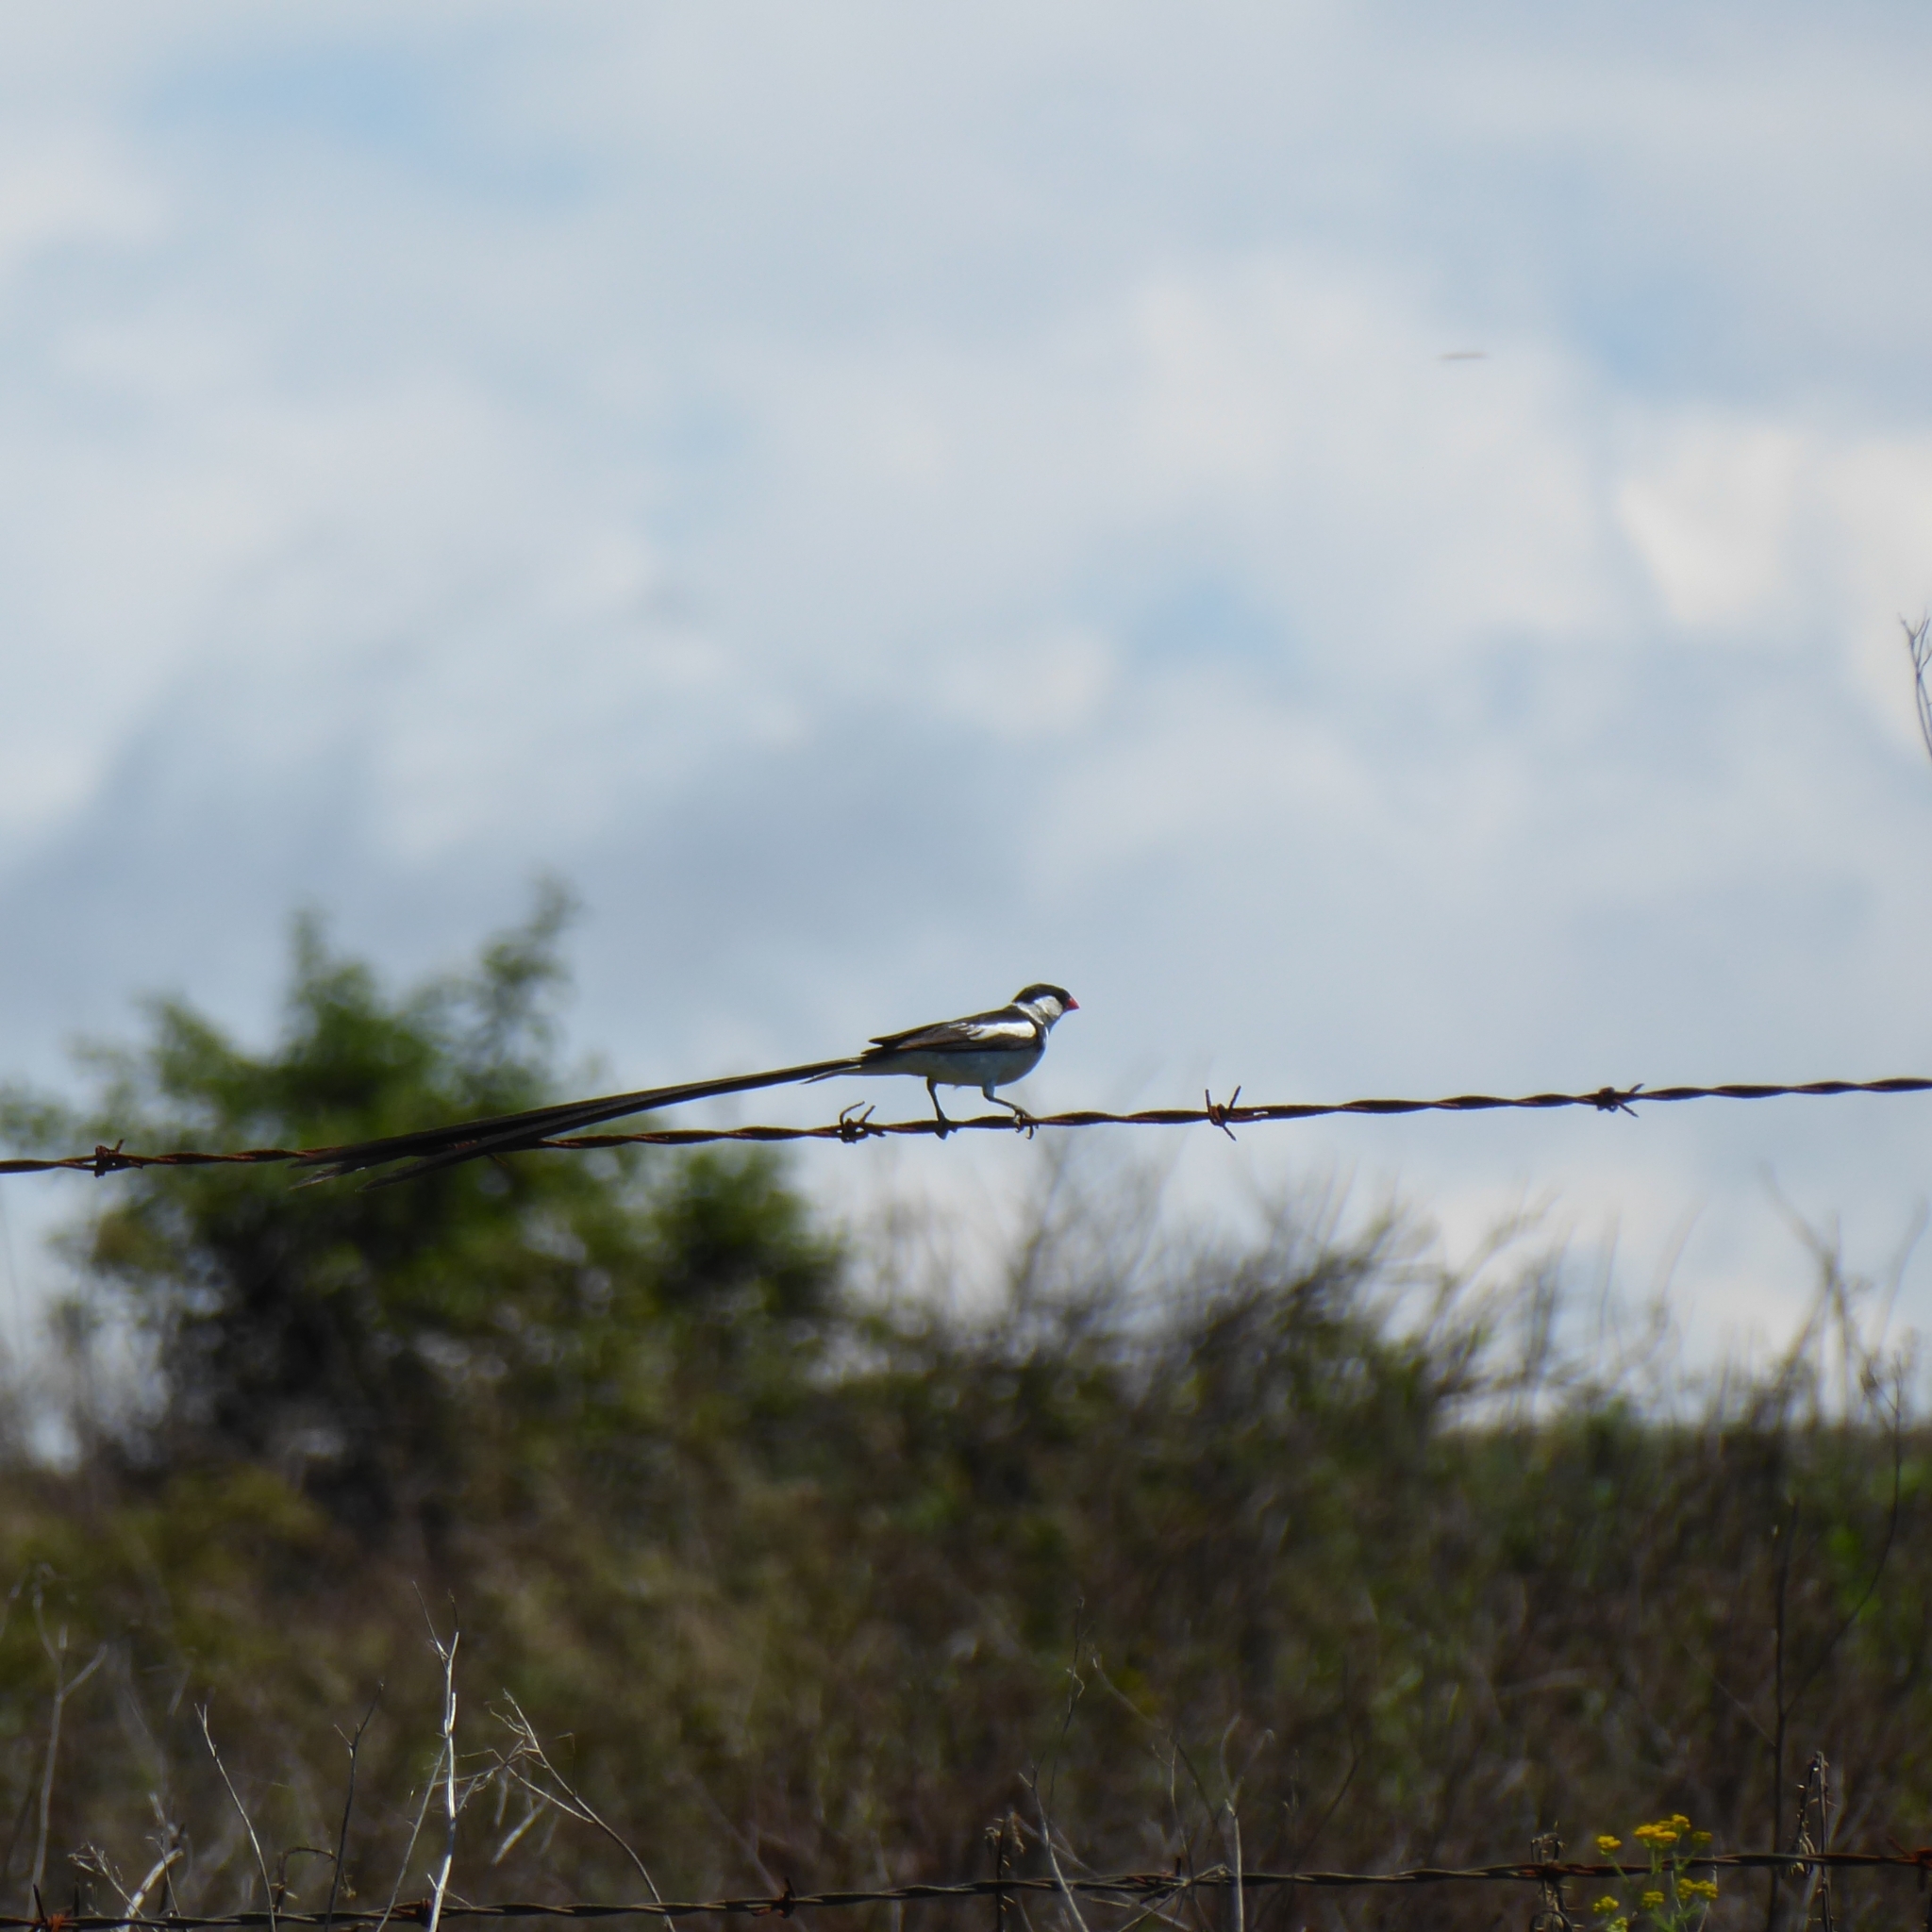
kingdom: Animalia
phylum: Chordata
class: Aves
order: Passeriformes
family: Viduidae
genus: Vidua
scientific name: Vidua macroura
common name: Pin-tailed whydah
